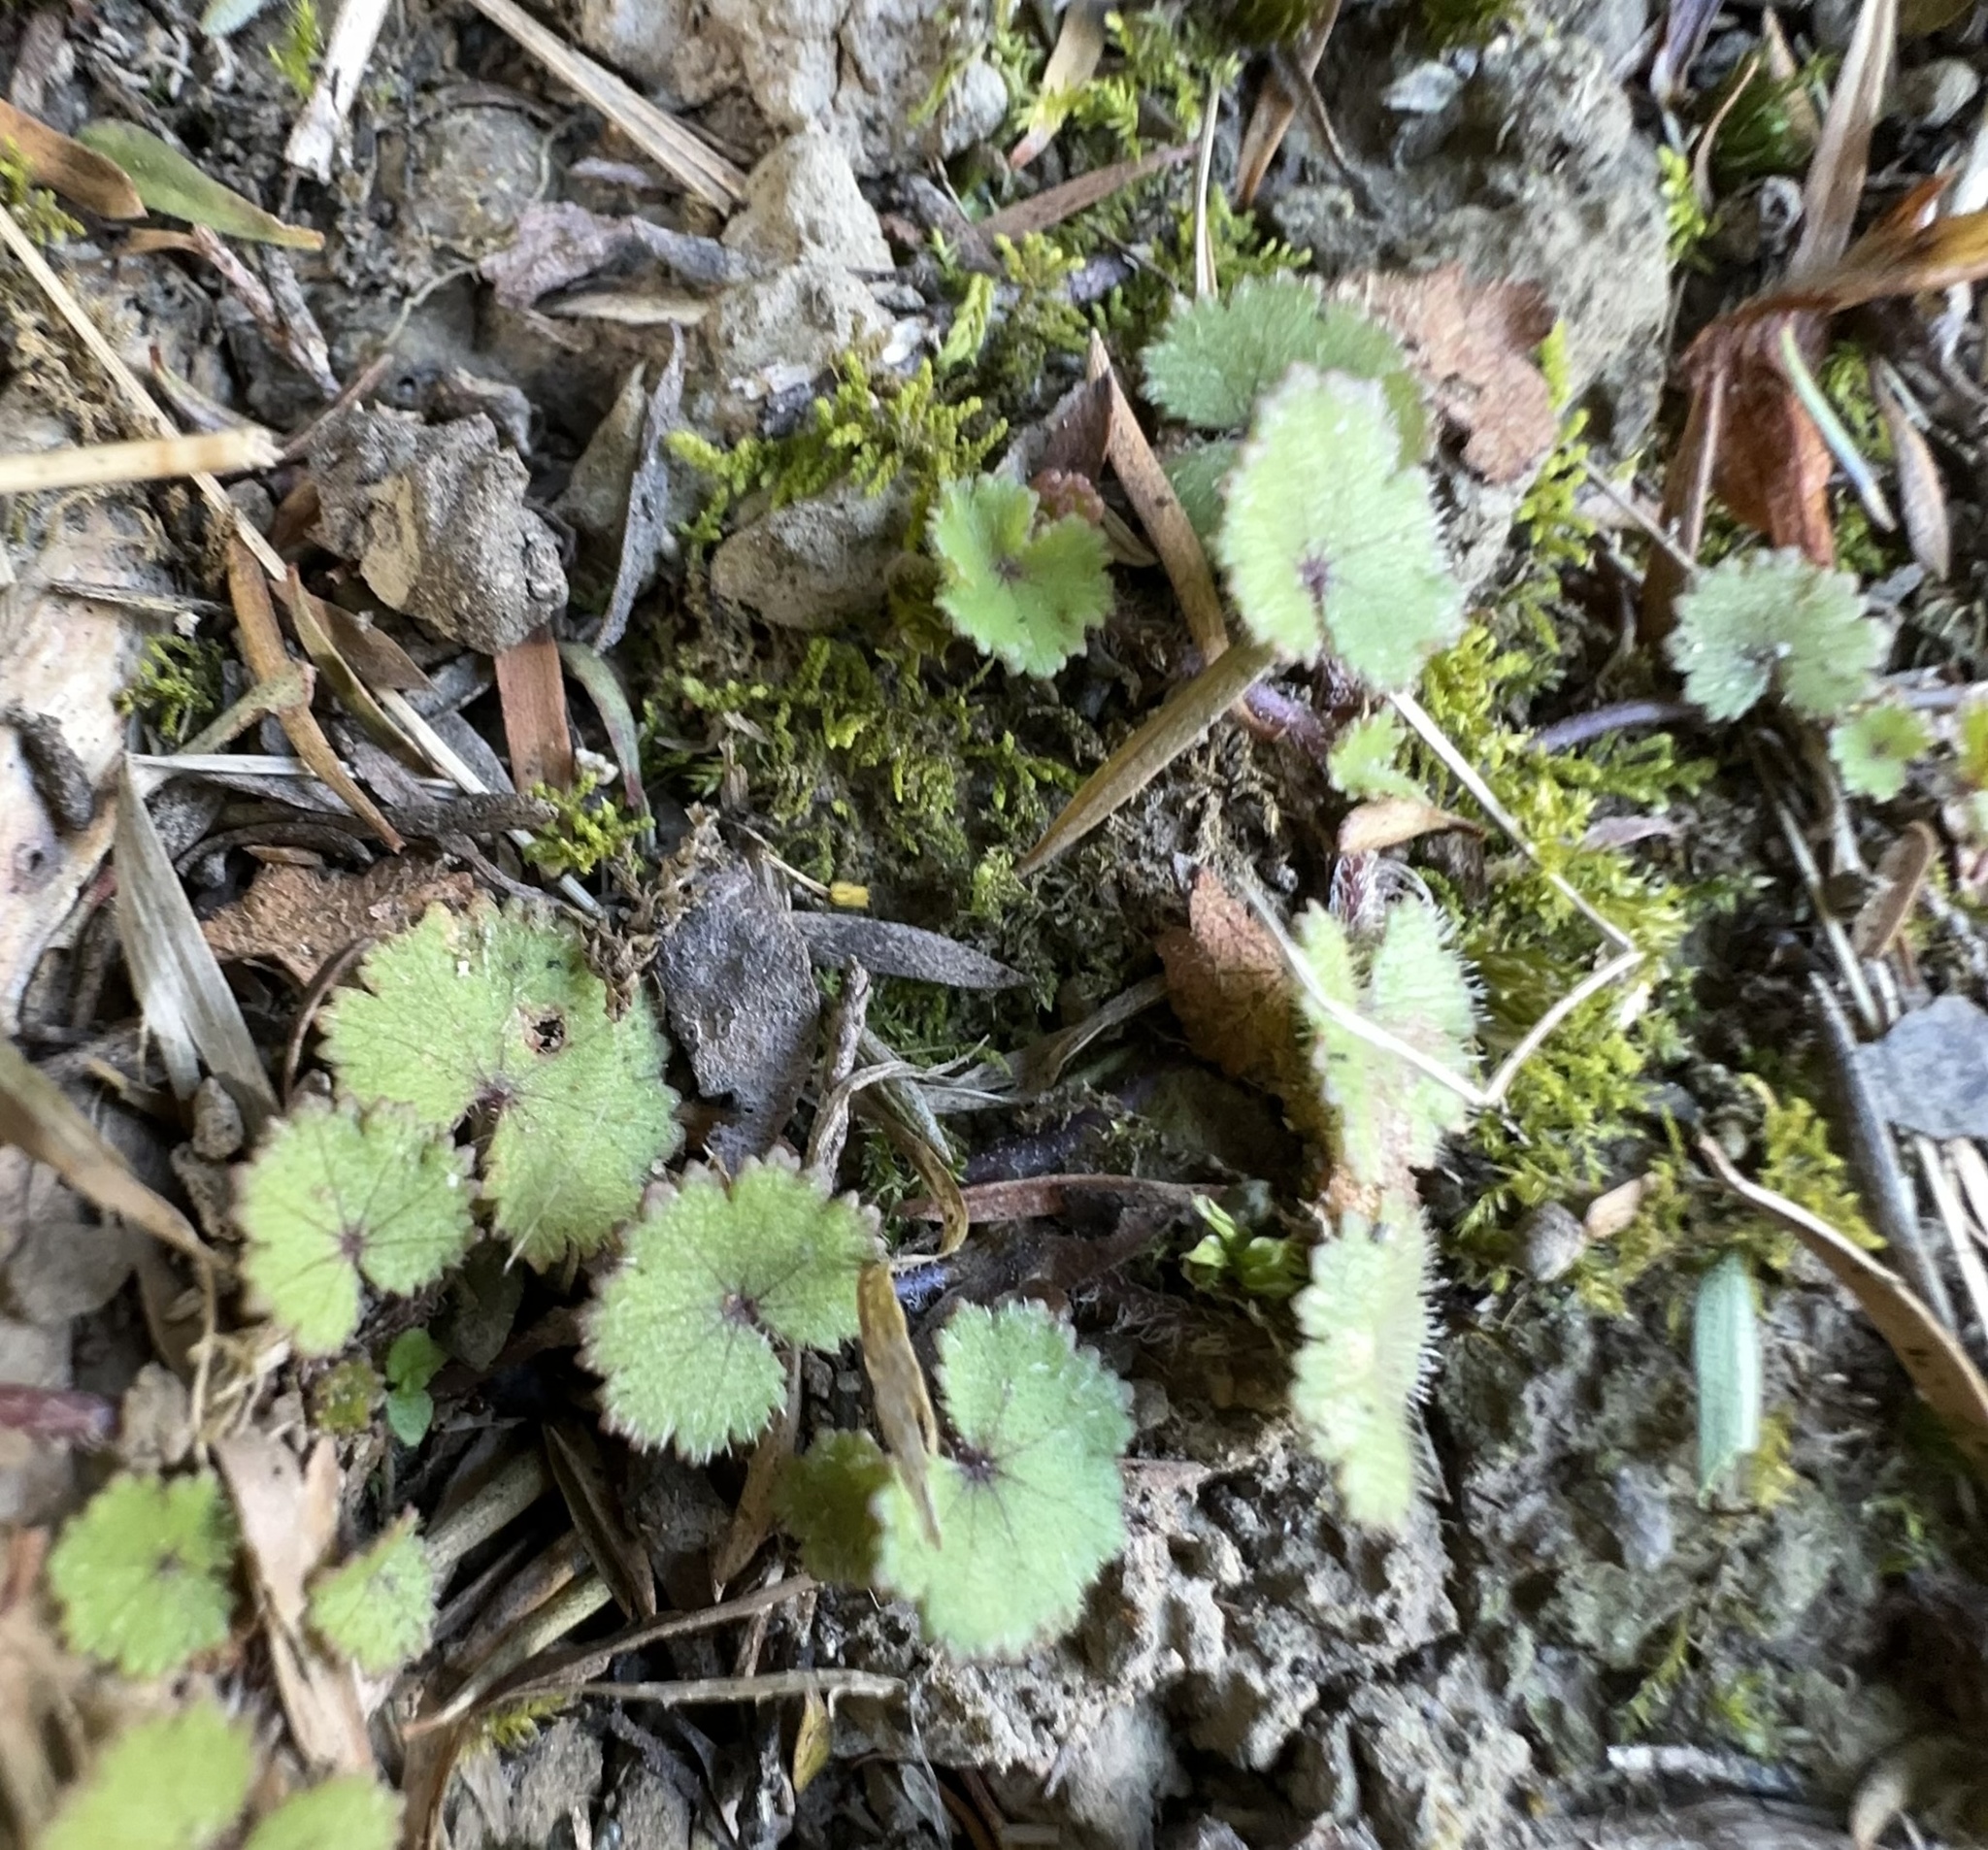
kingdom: Plantae
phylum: Tracheophyta
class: Magnoliopsida
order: Apiales
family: Araliaceae
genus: Hydrocotyle
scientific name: Hydrocotyle moschata
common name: Hairy pennywort
